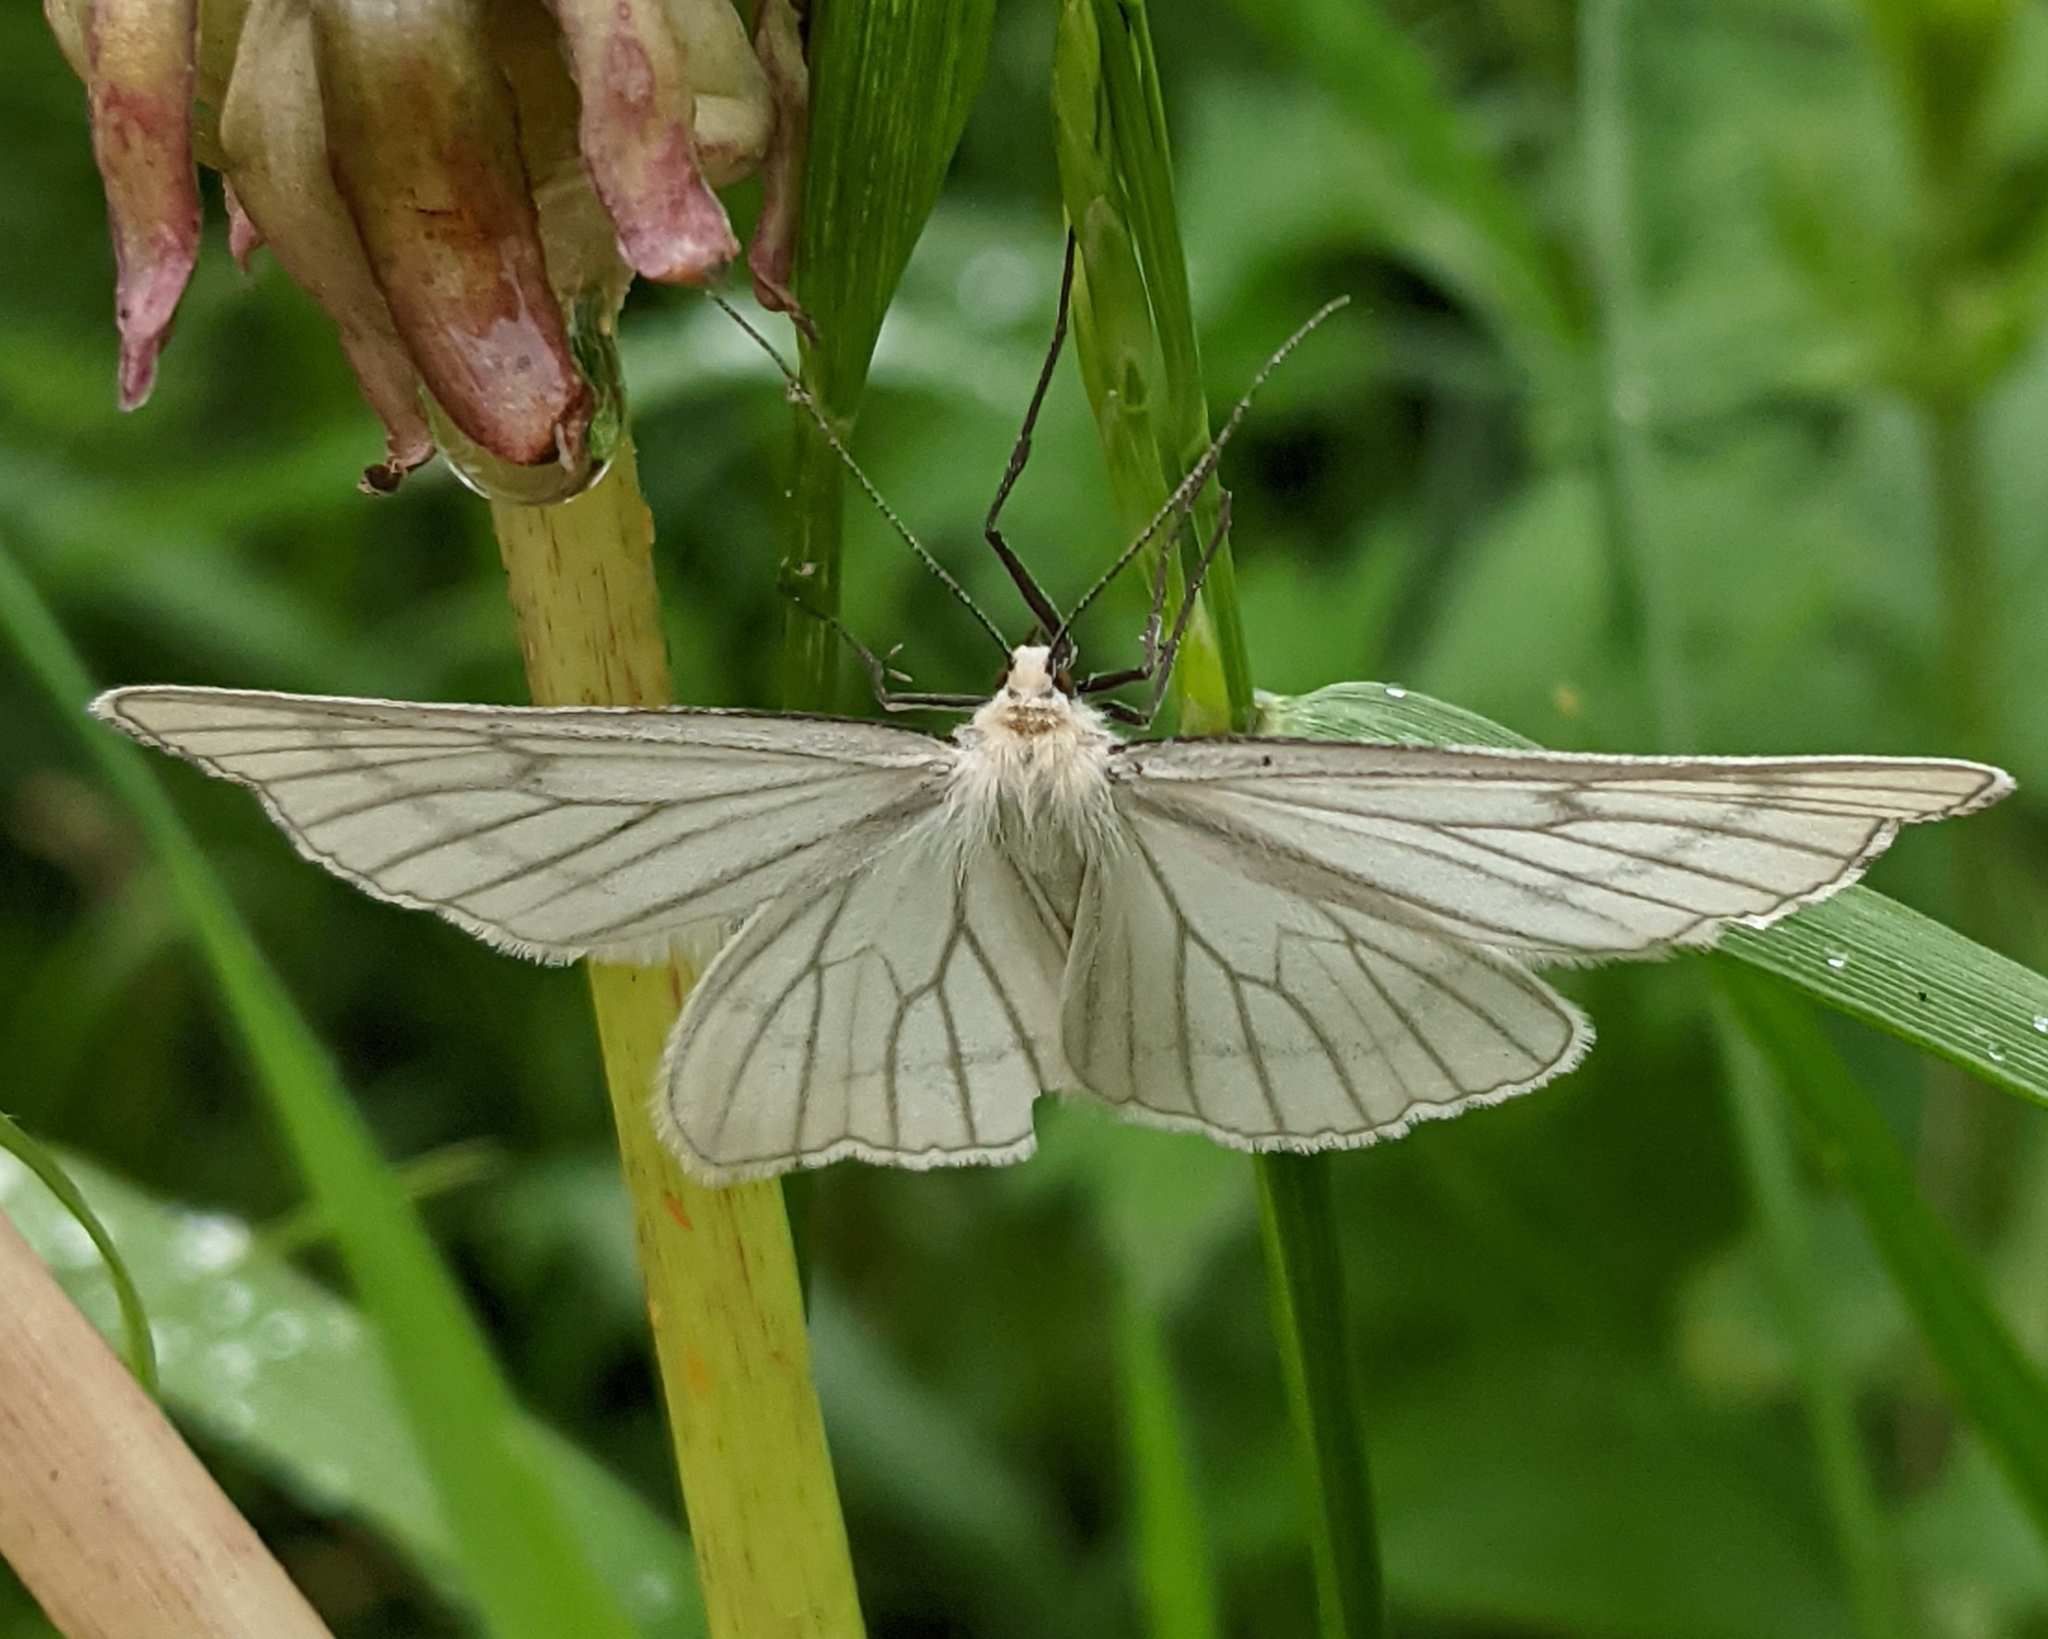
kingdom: Animalia
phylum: Arthropoda
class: Insecta
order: Lepidoptera
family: Geometridae
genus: Siona
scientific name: Siona lineata
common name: Black-veined moth
